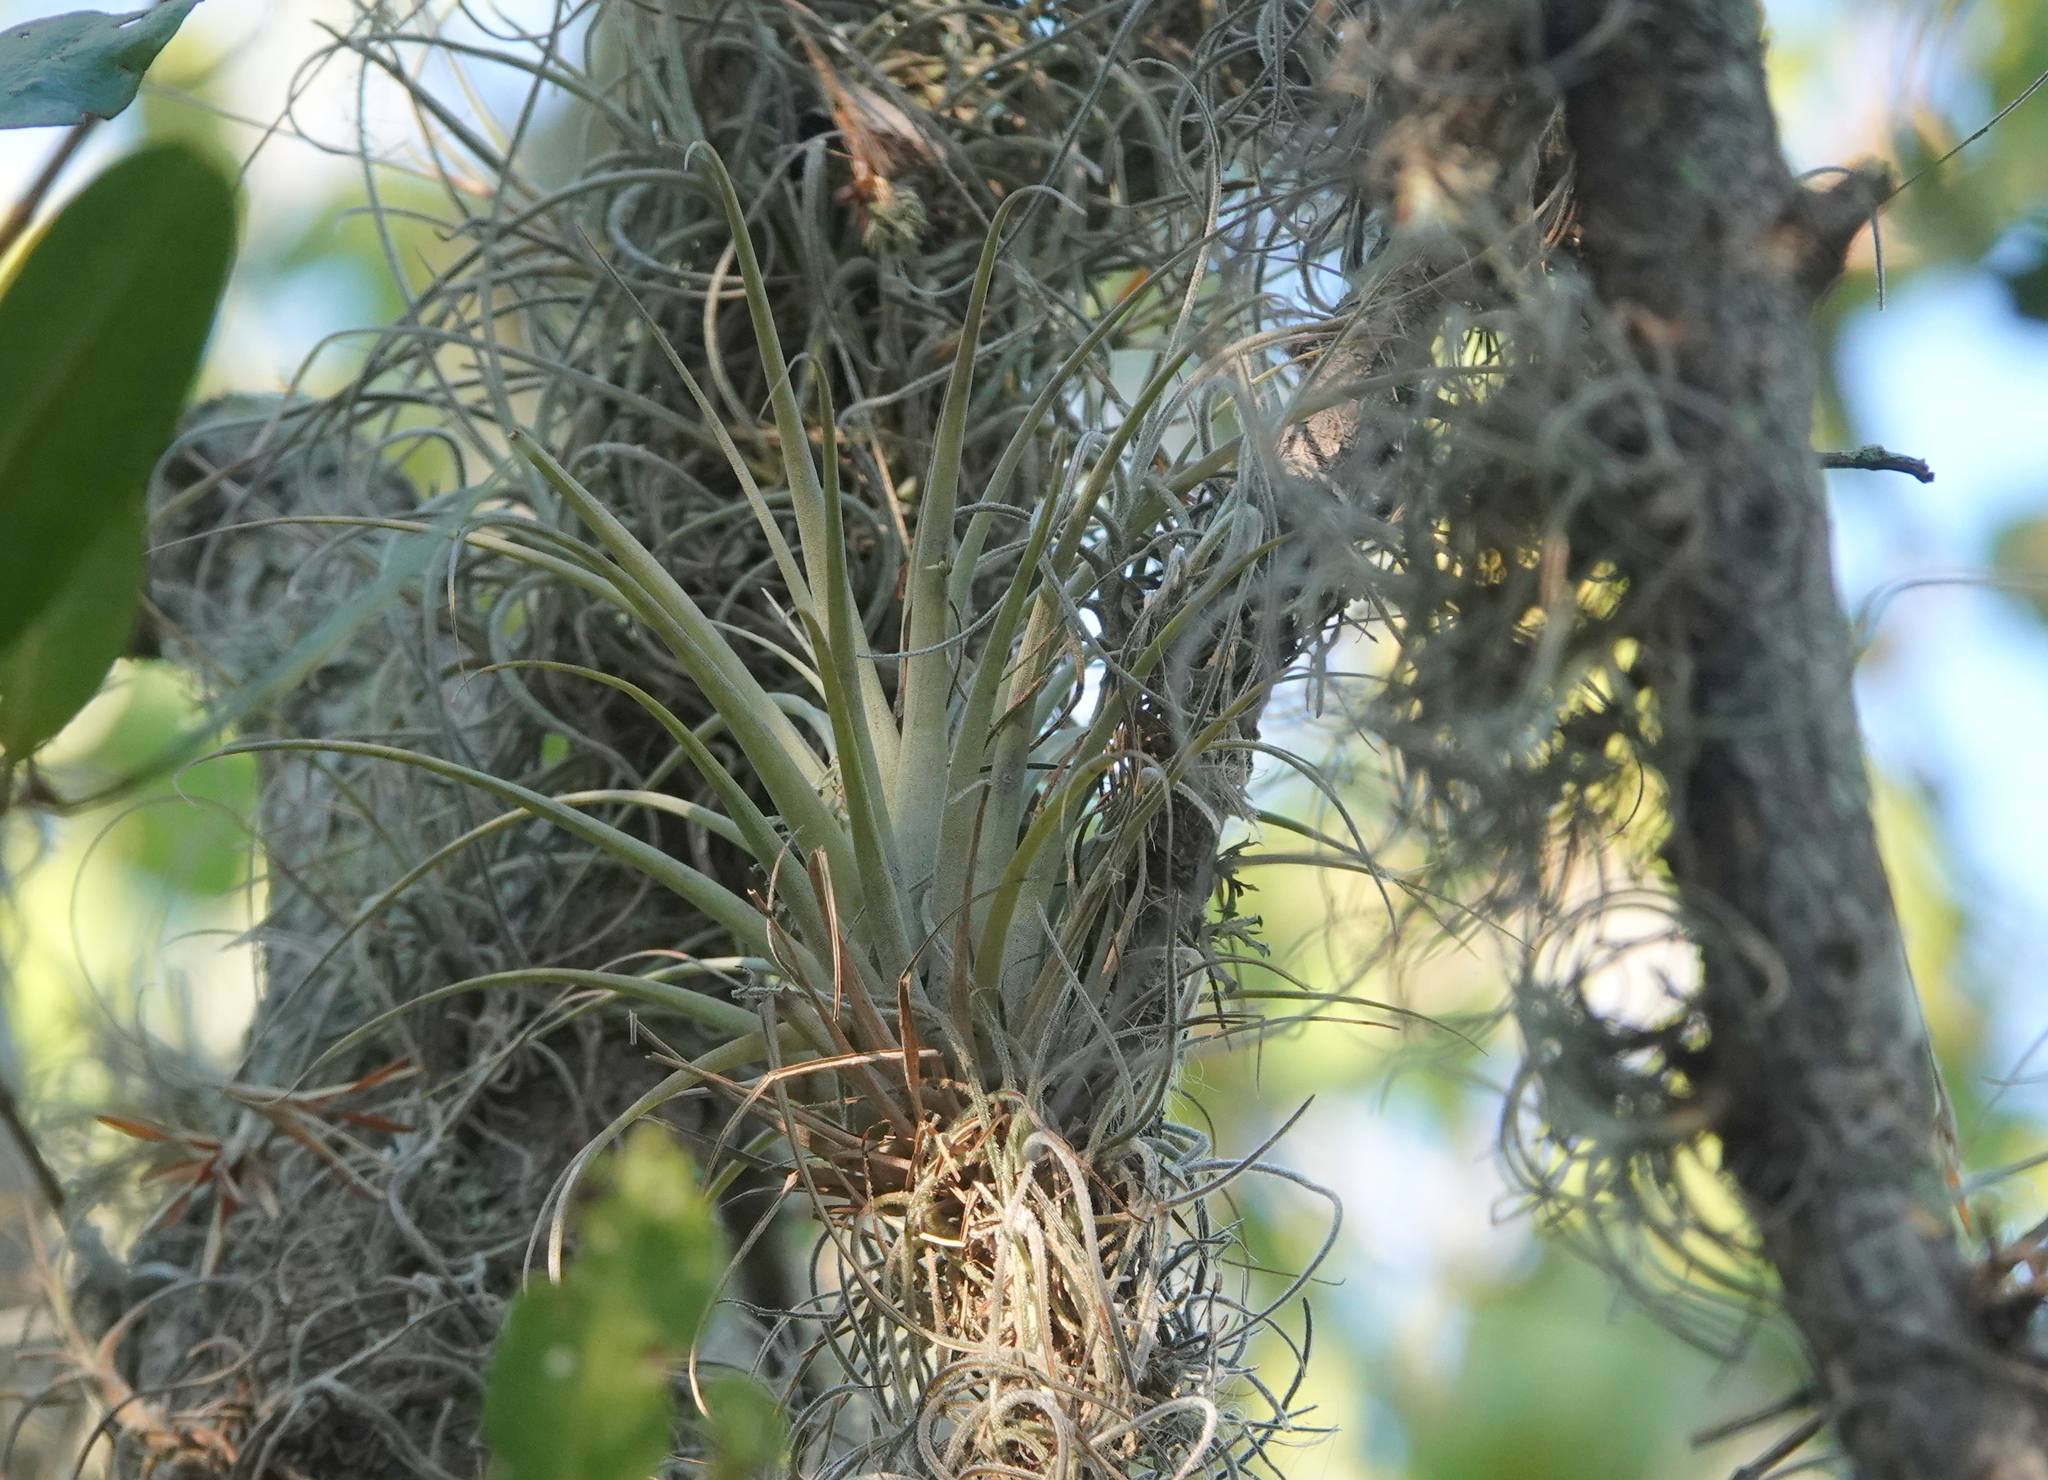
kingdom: Plantae
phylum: Tracheophyta
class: Liliopsida
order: Poales
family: Bromeliaceae
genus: Tillandsia
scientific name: Tillandsia utriculata
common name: Wild pine
